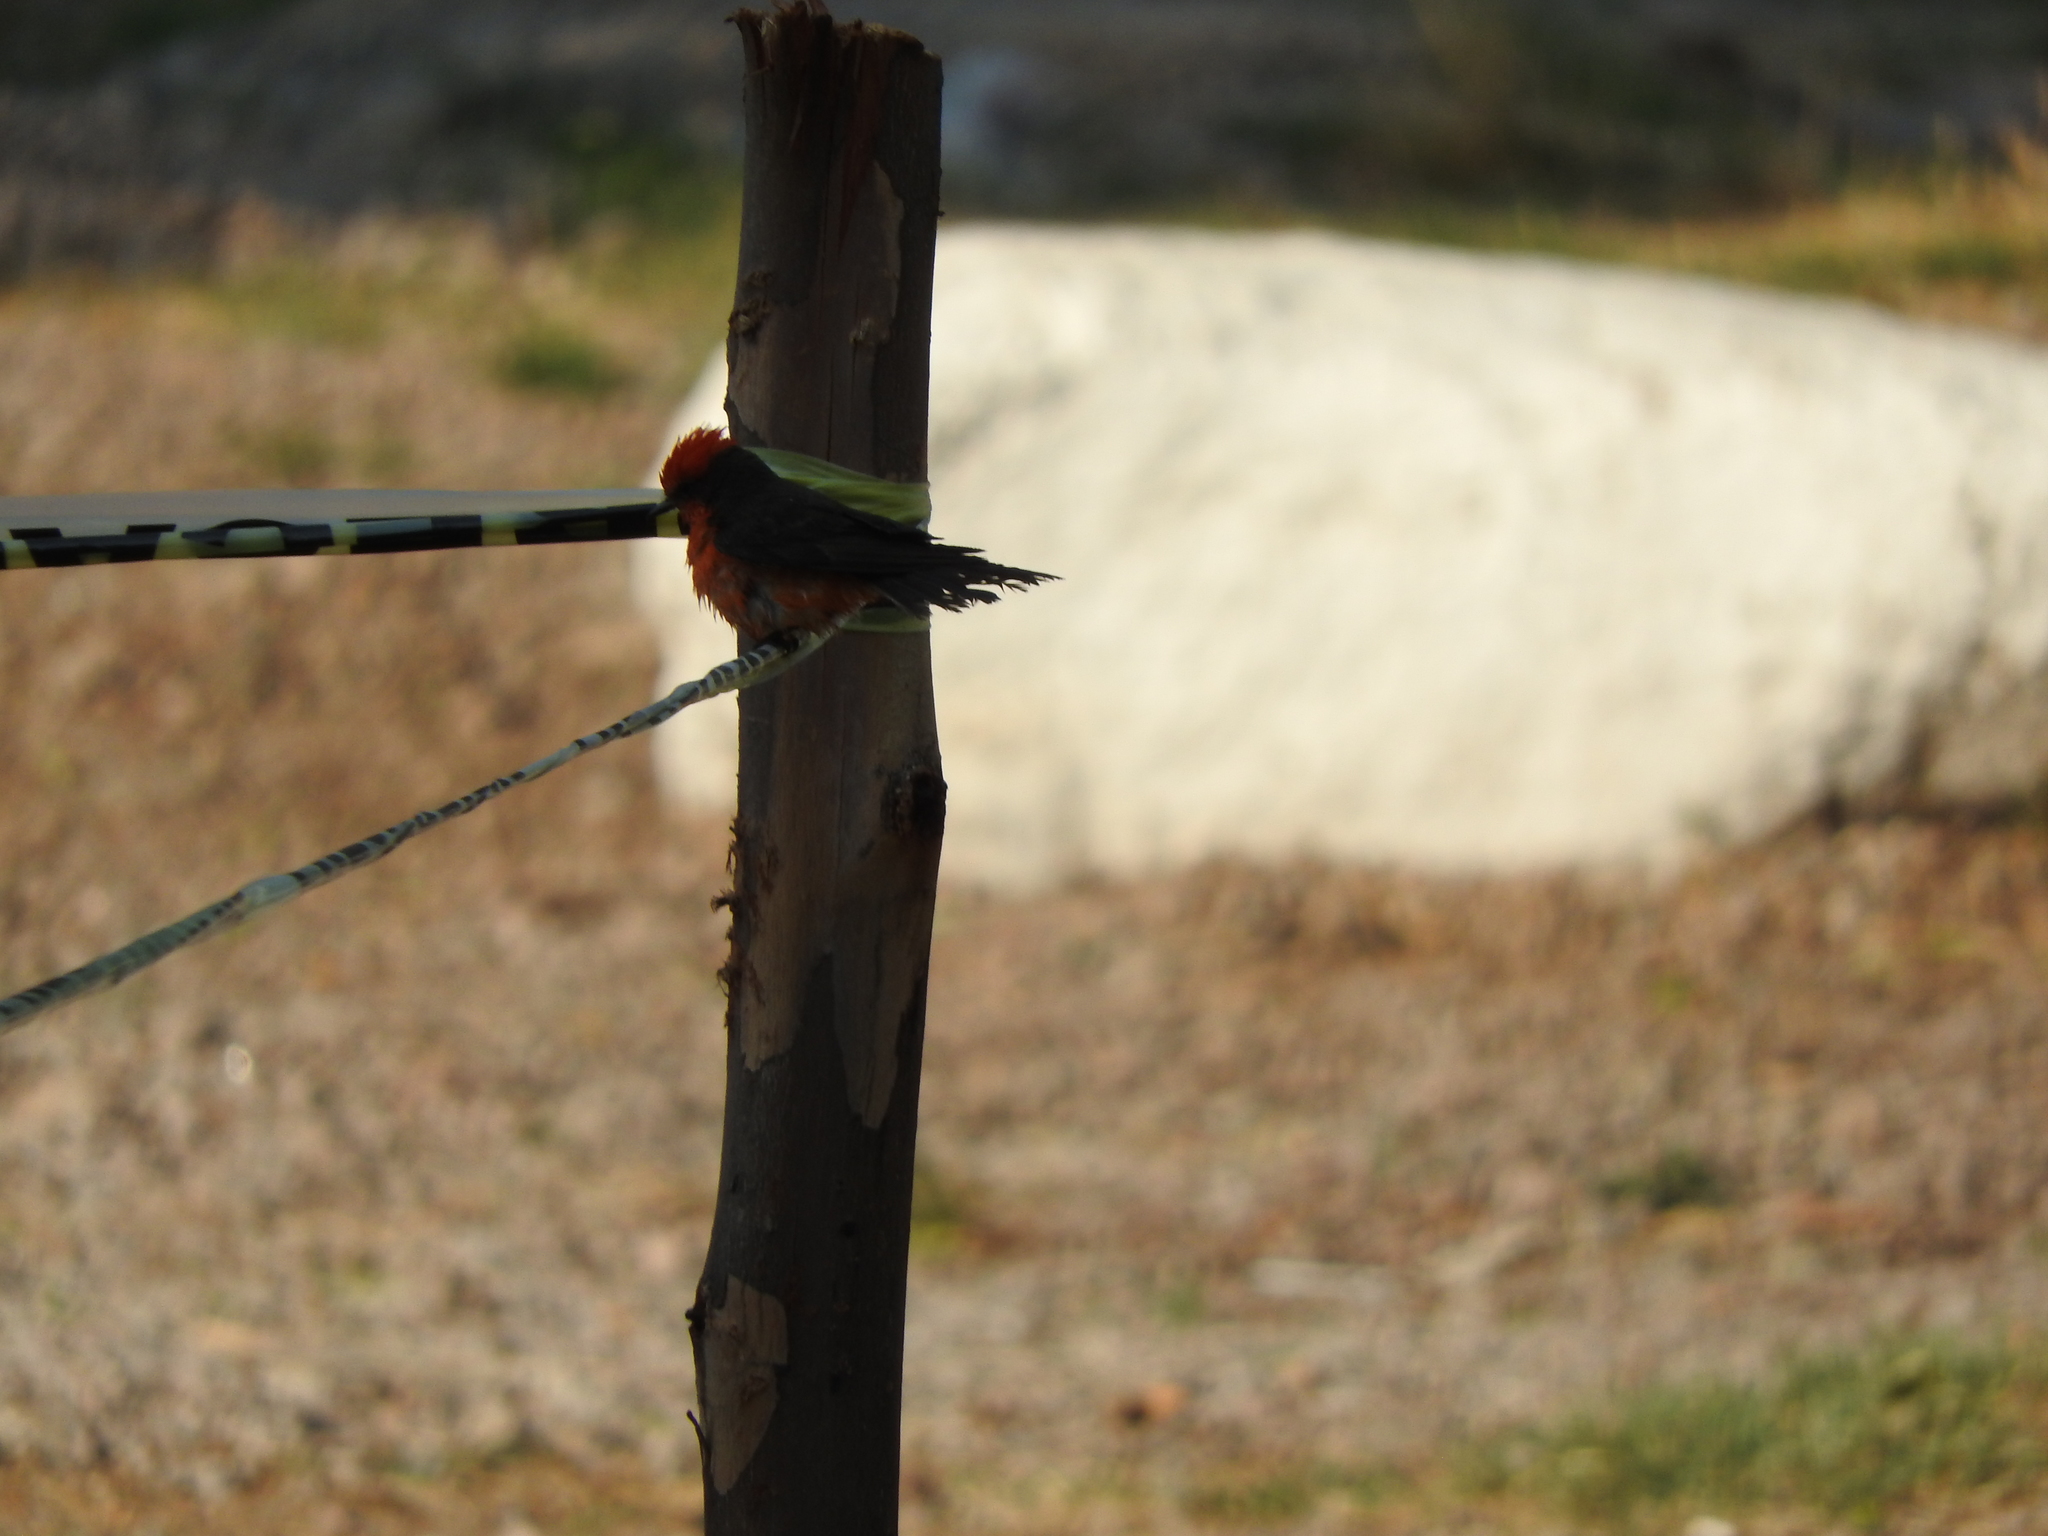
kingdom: Animalia
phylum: Chordata
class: Aves
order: Passeriformes
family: Tyrannidae
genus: Pyrocephalus
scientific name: Pyrocephalus rubinus
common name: Vermilion flycatcher
